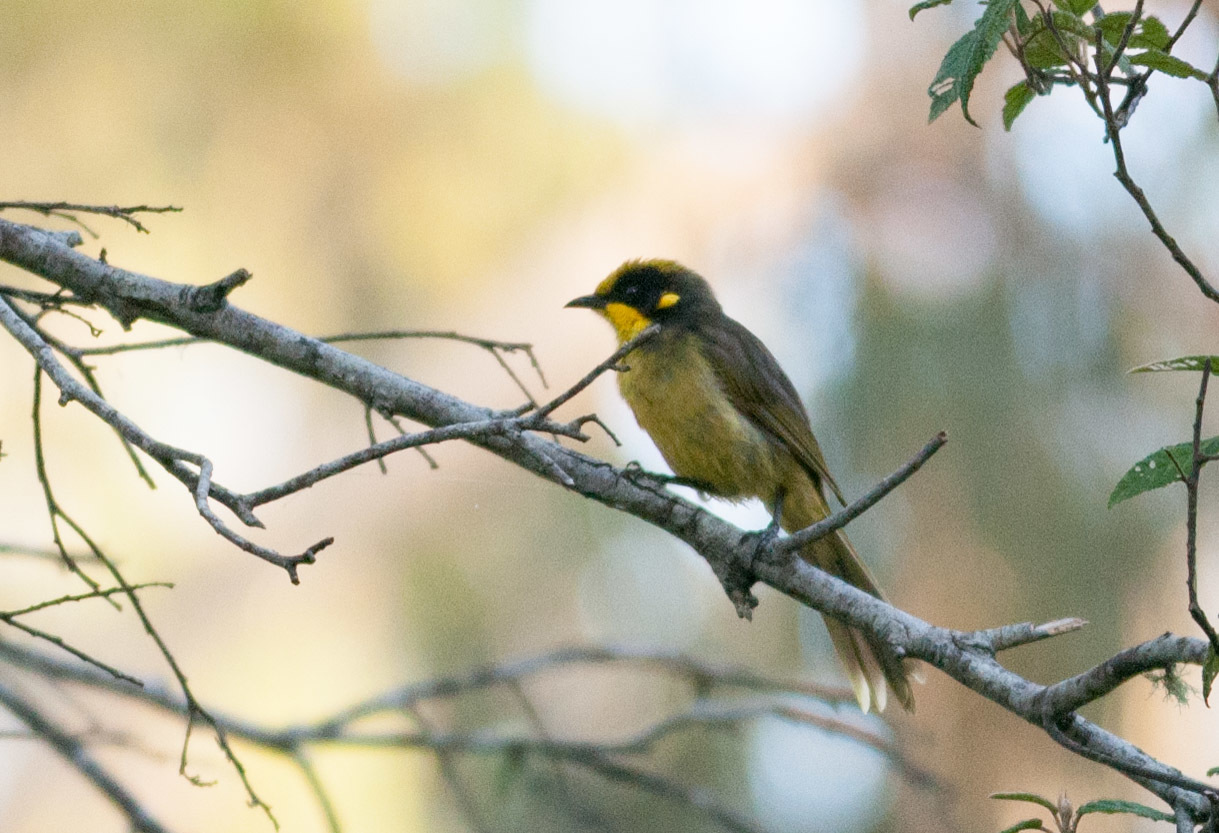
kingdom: Animalia
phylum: Chordata
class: Aves
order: Passeriformes
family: Meliphagidae
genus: Lichenostomus
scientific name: Lichenostomus melanops
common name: Yellow-tufted honeyeater
